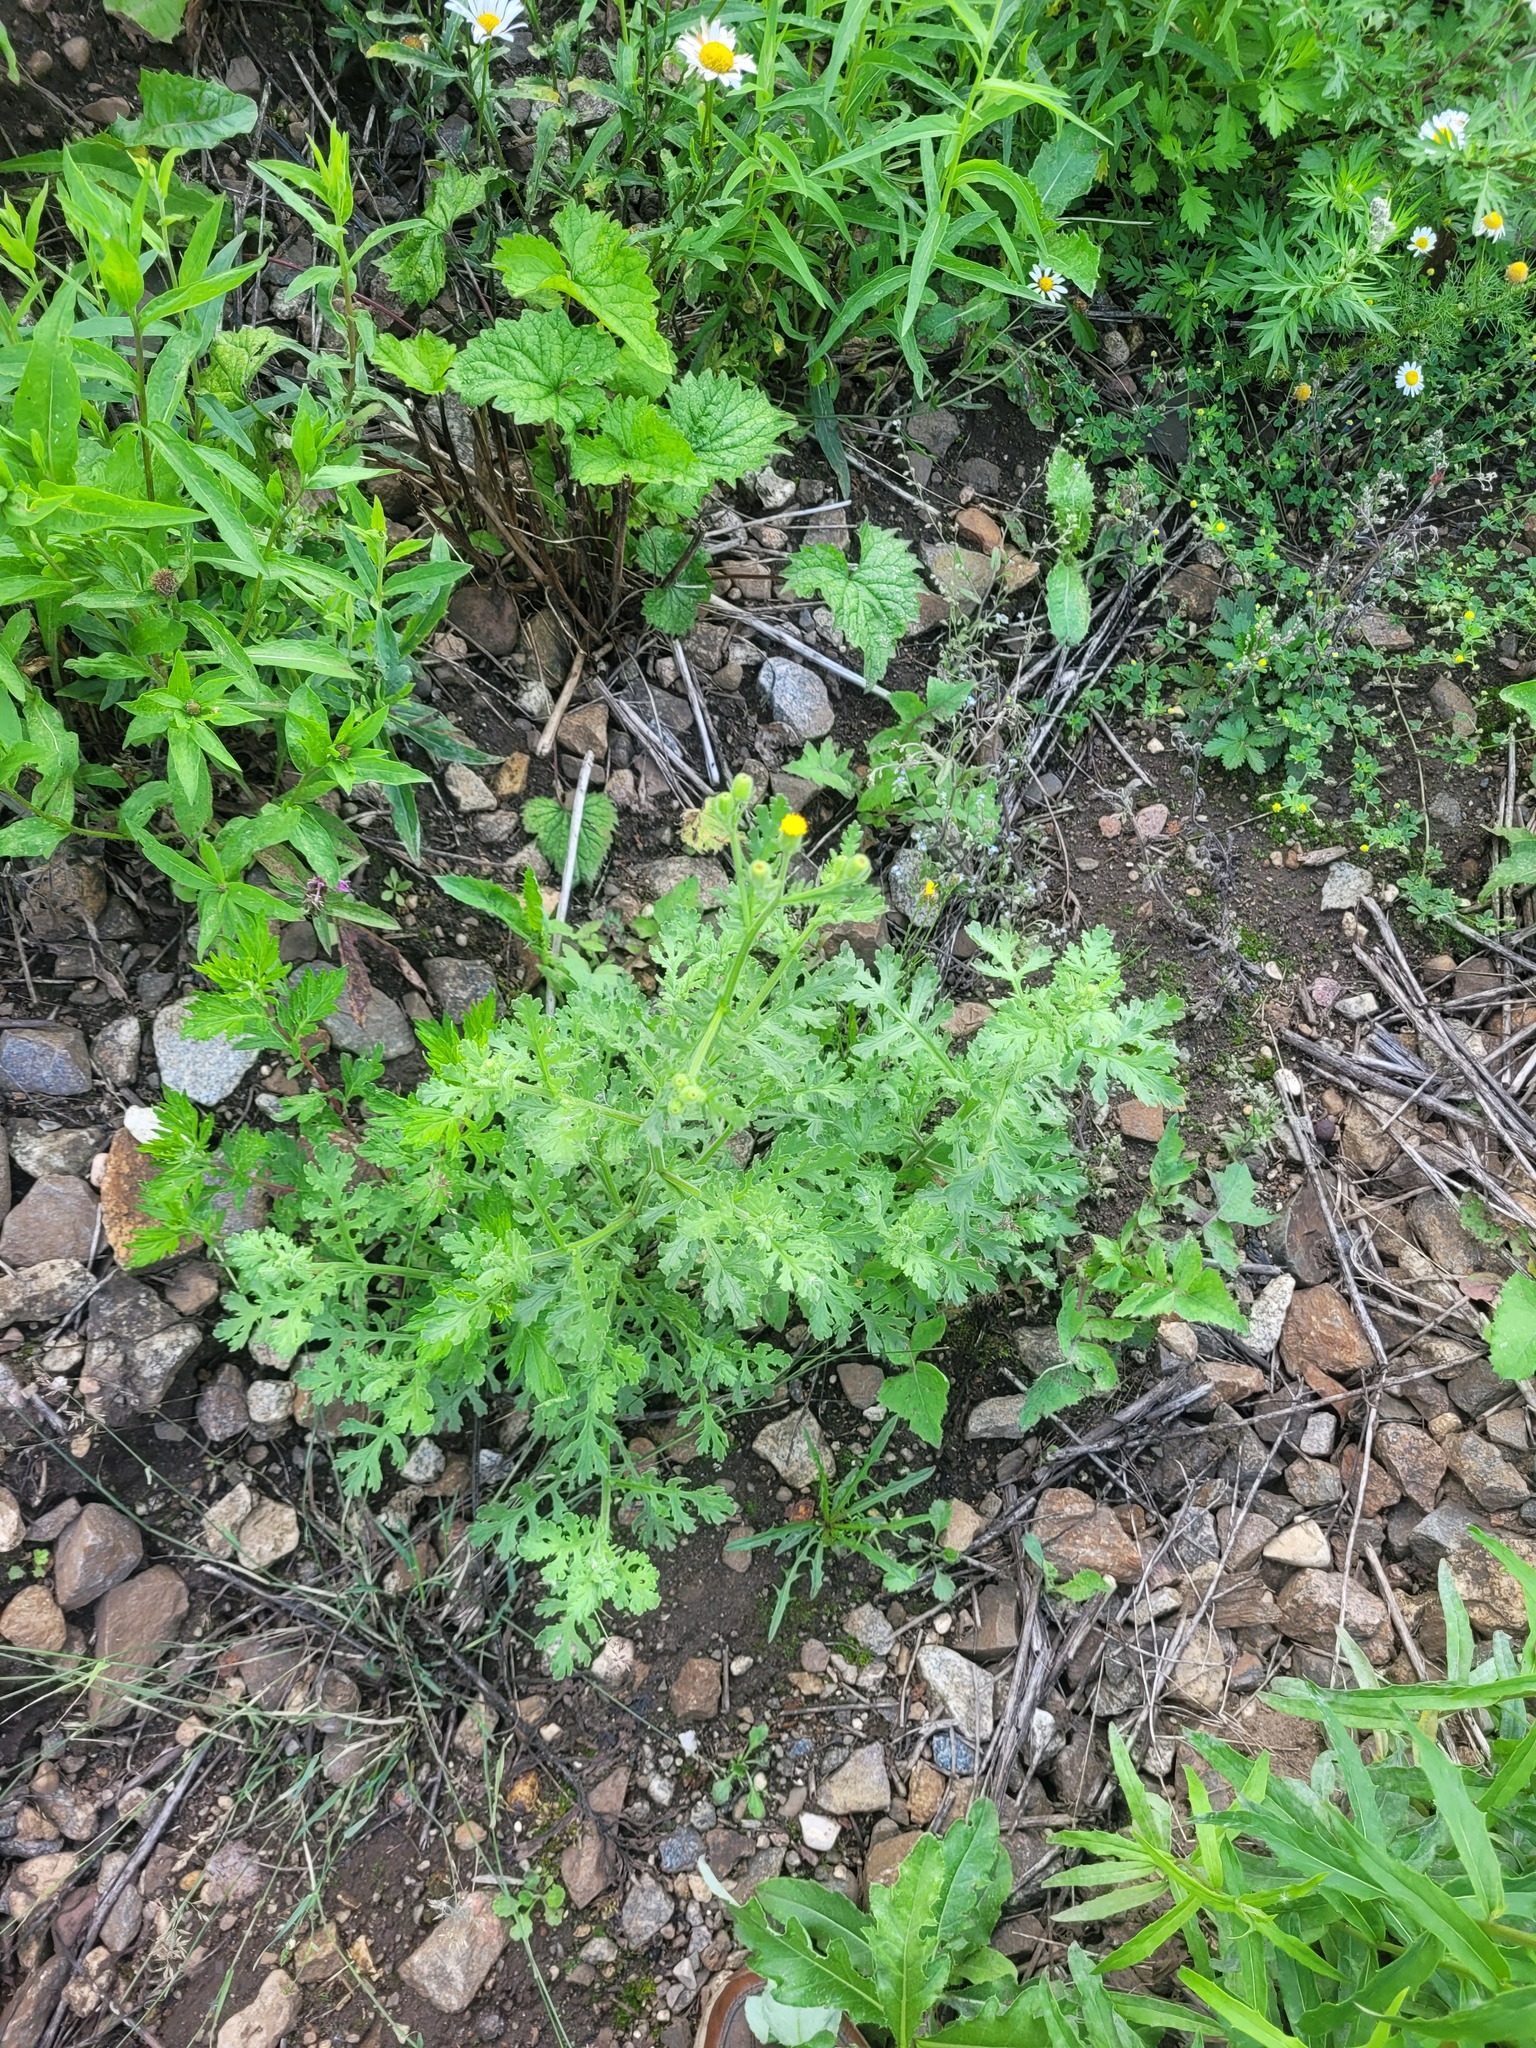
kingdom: Plantae
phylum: Tracheophyta
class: Magnoliopsida
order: Asterales
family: Asteraceae
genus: Senecio
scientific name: Senecio viscosus
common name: Sticky groundsel
